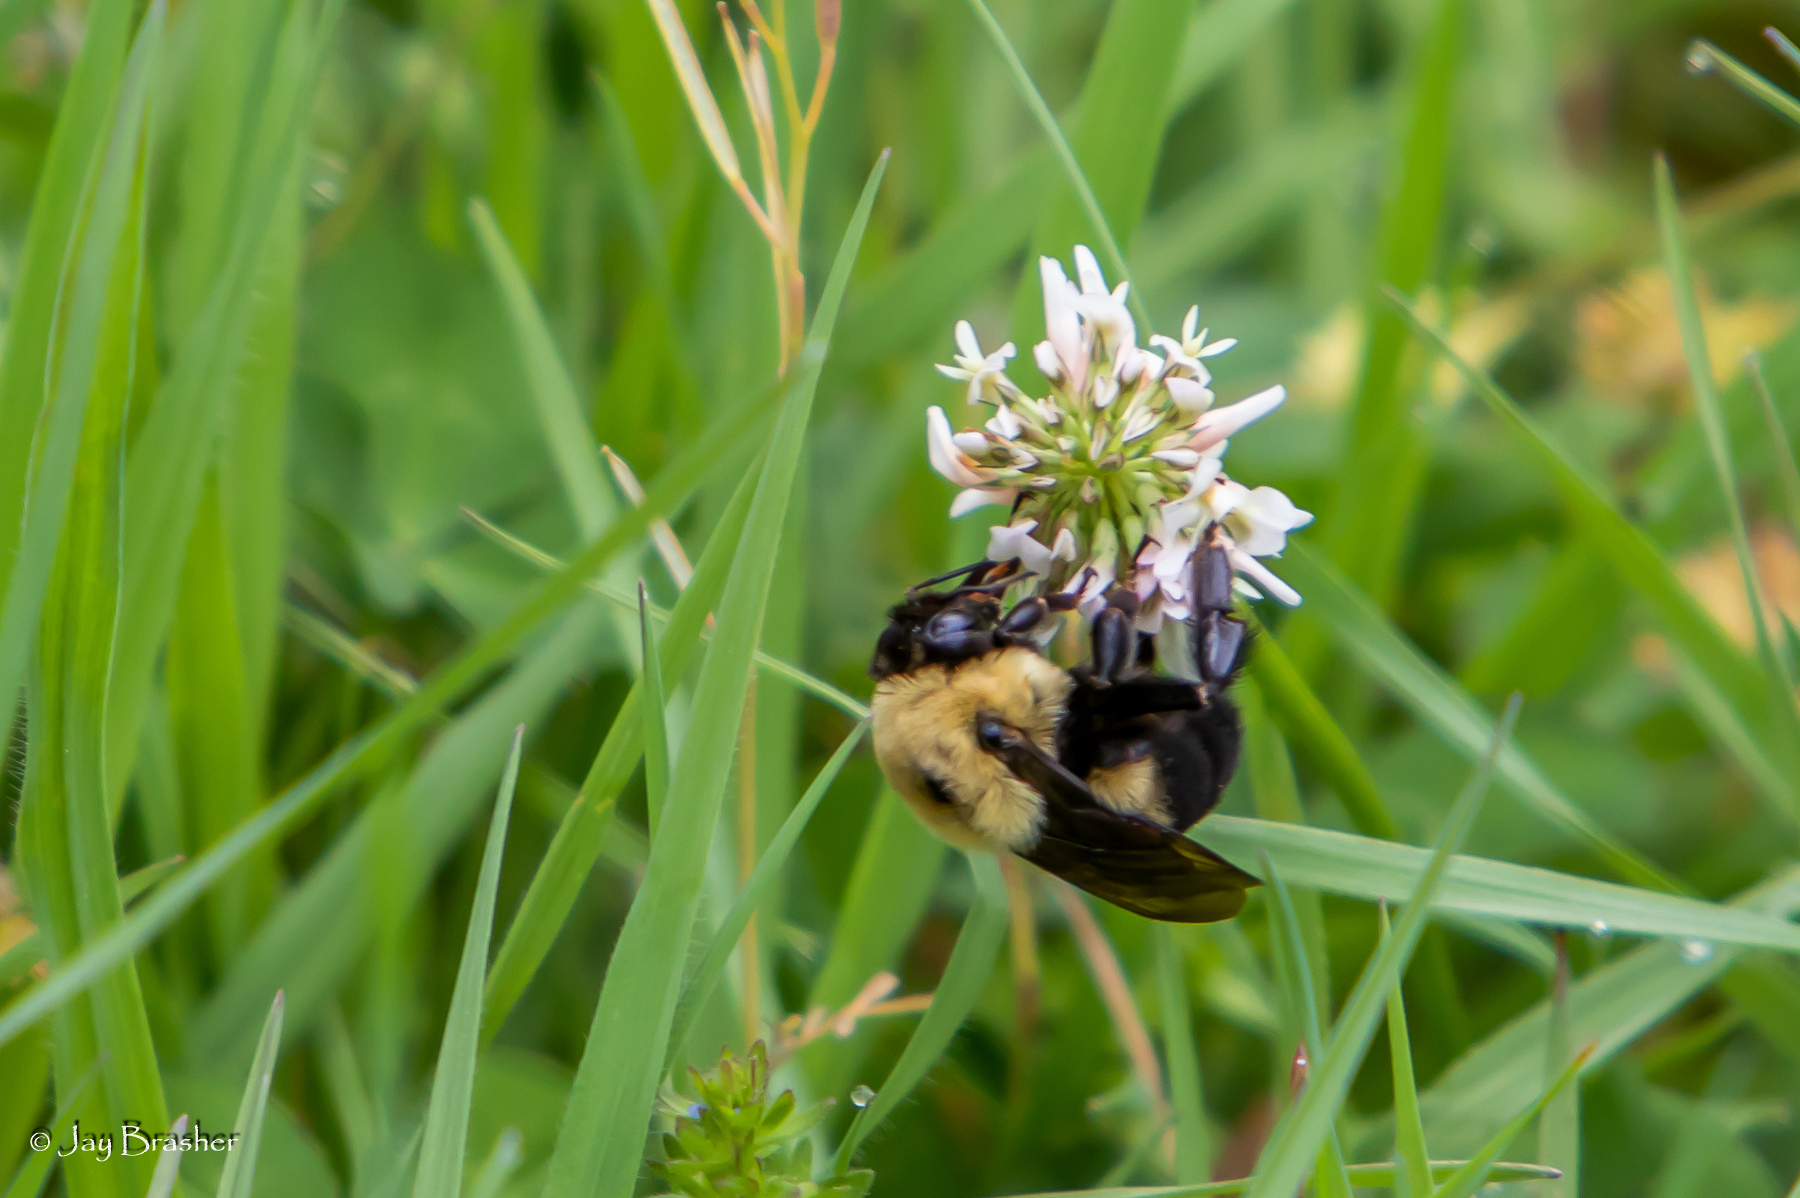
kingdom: Animalia
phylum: Arthropoda
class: Insecta
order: Hymenoptera
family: Apidae
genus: Bombus
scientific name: Bombus griseocollis
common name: Brown-belted bumble bee
